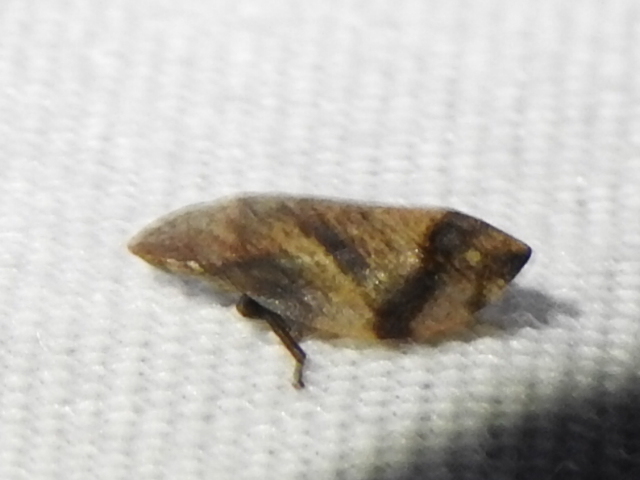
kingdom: Animalia
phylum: Arthropoda
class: Insecta
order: Hemiptera
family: Aphrophoridae
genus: Lepyronia
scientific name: Lepyronia quadrangularis
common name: Diamond-backed spittlebug
